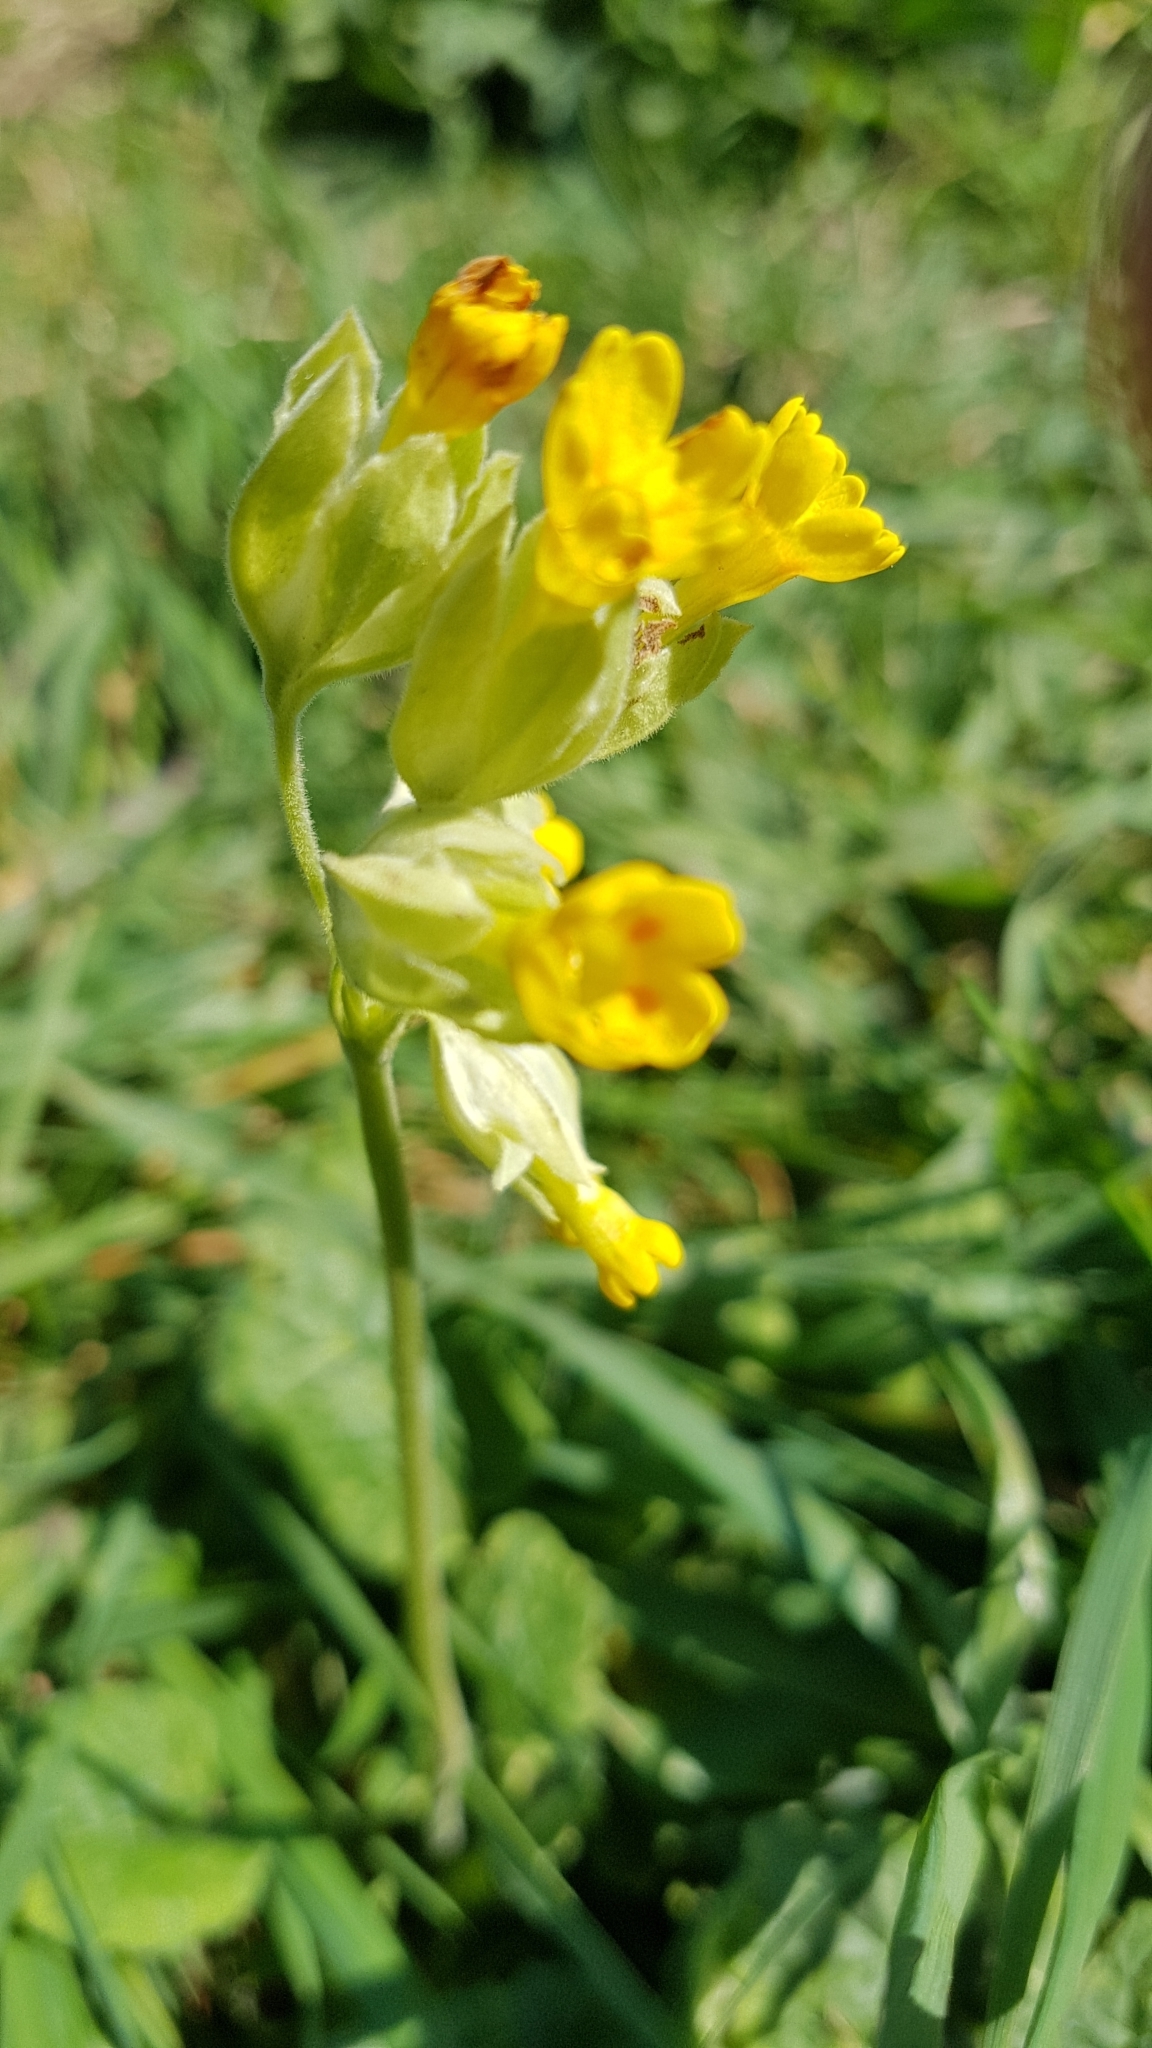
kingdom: Plantae
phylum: Tracheophyta
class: Magnoliopsida
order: Ericales
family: Primulaceae
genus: Primula
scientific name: Primula veris
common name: Cowslip
